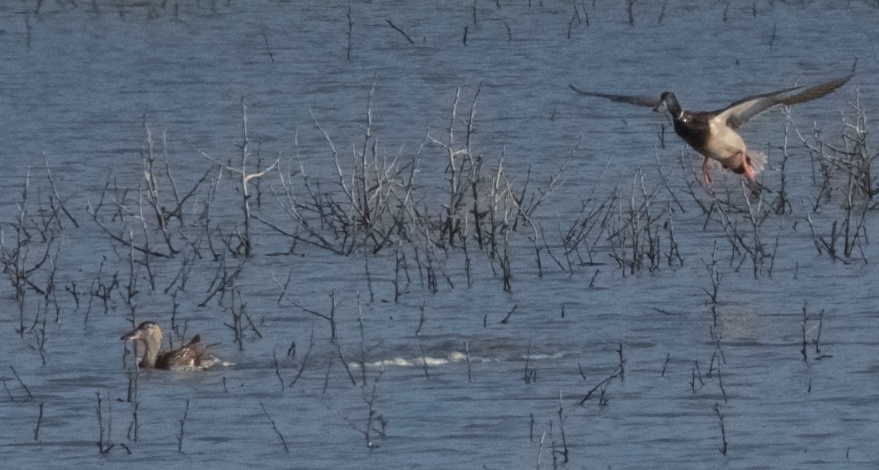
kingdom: Animalia
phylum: Chordata
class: Aves
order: Anseriformes
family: Anatidae
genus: Anas
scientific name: Anas platyrhynchos
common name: Mallard
